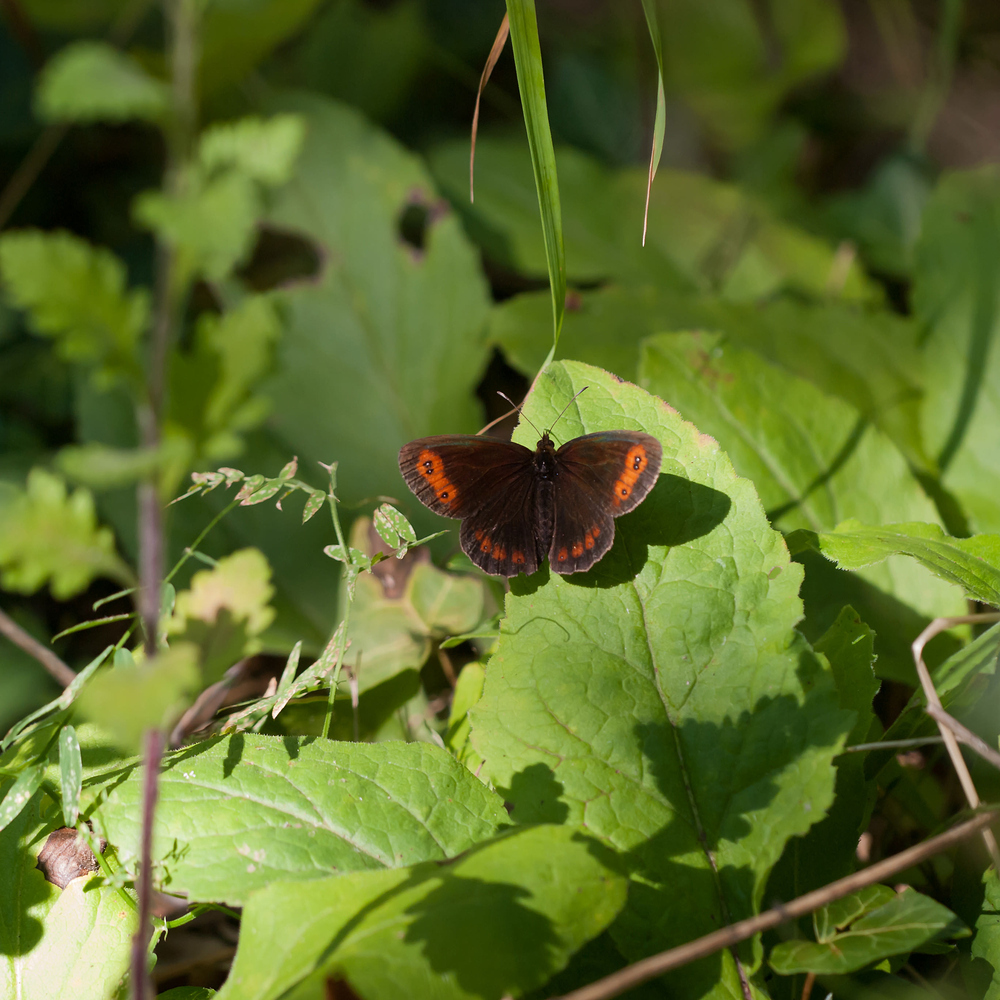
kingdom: Animalia
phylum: Arthropoda
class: Insecta
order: Lepidoptera
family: Nymphalidae
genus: Erebia
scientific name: Erebia aethiops
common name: Scotch argus
